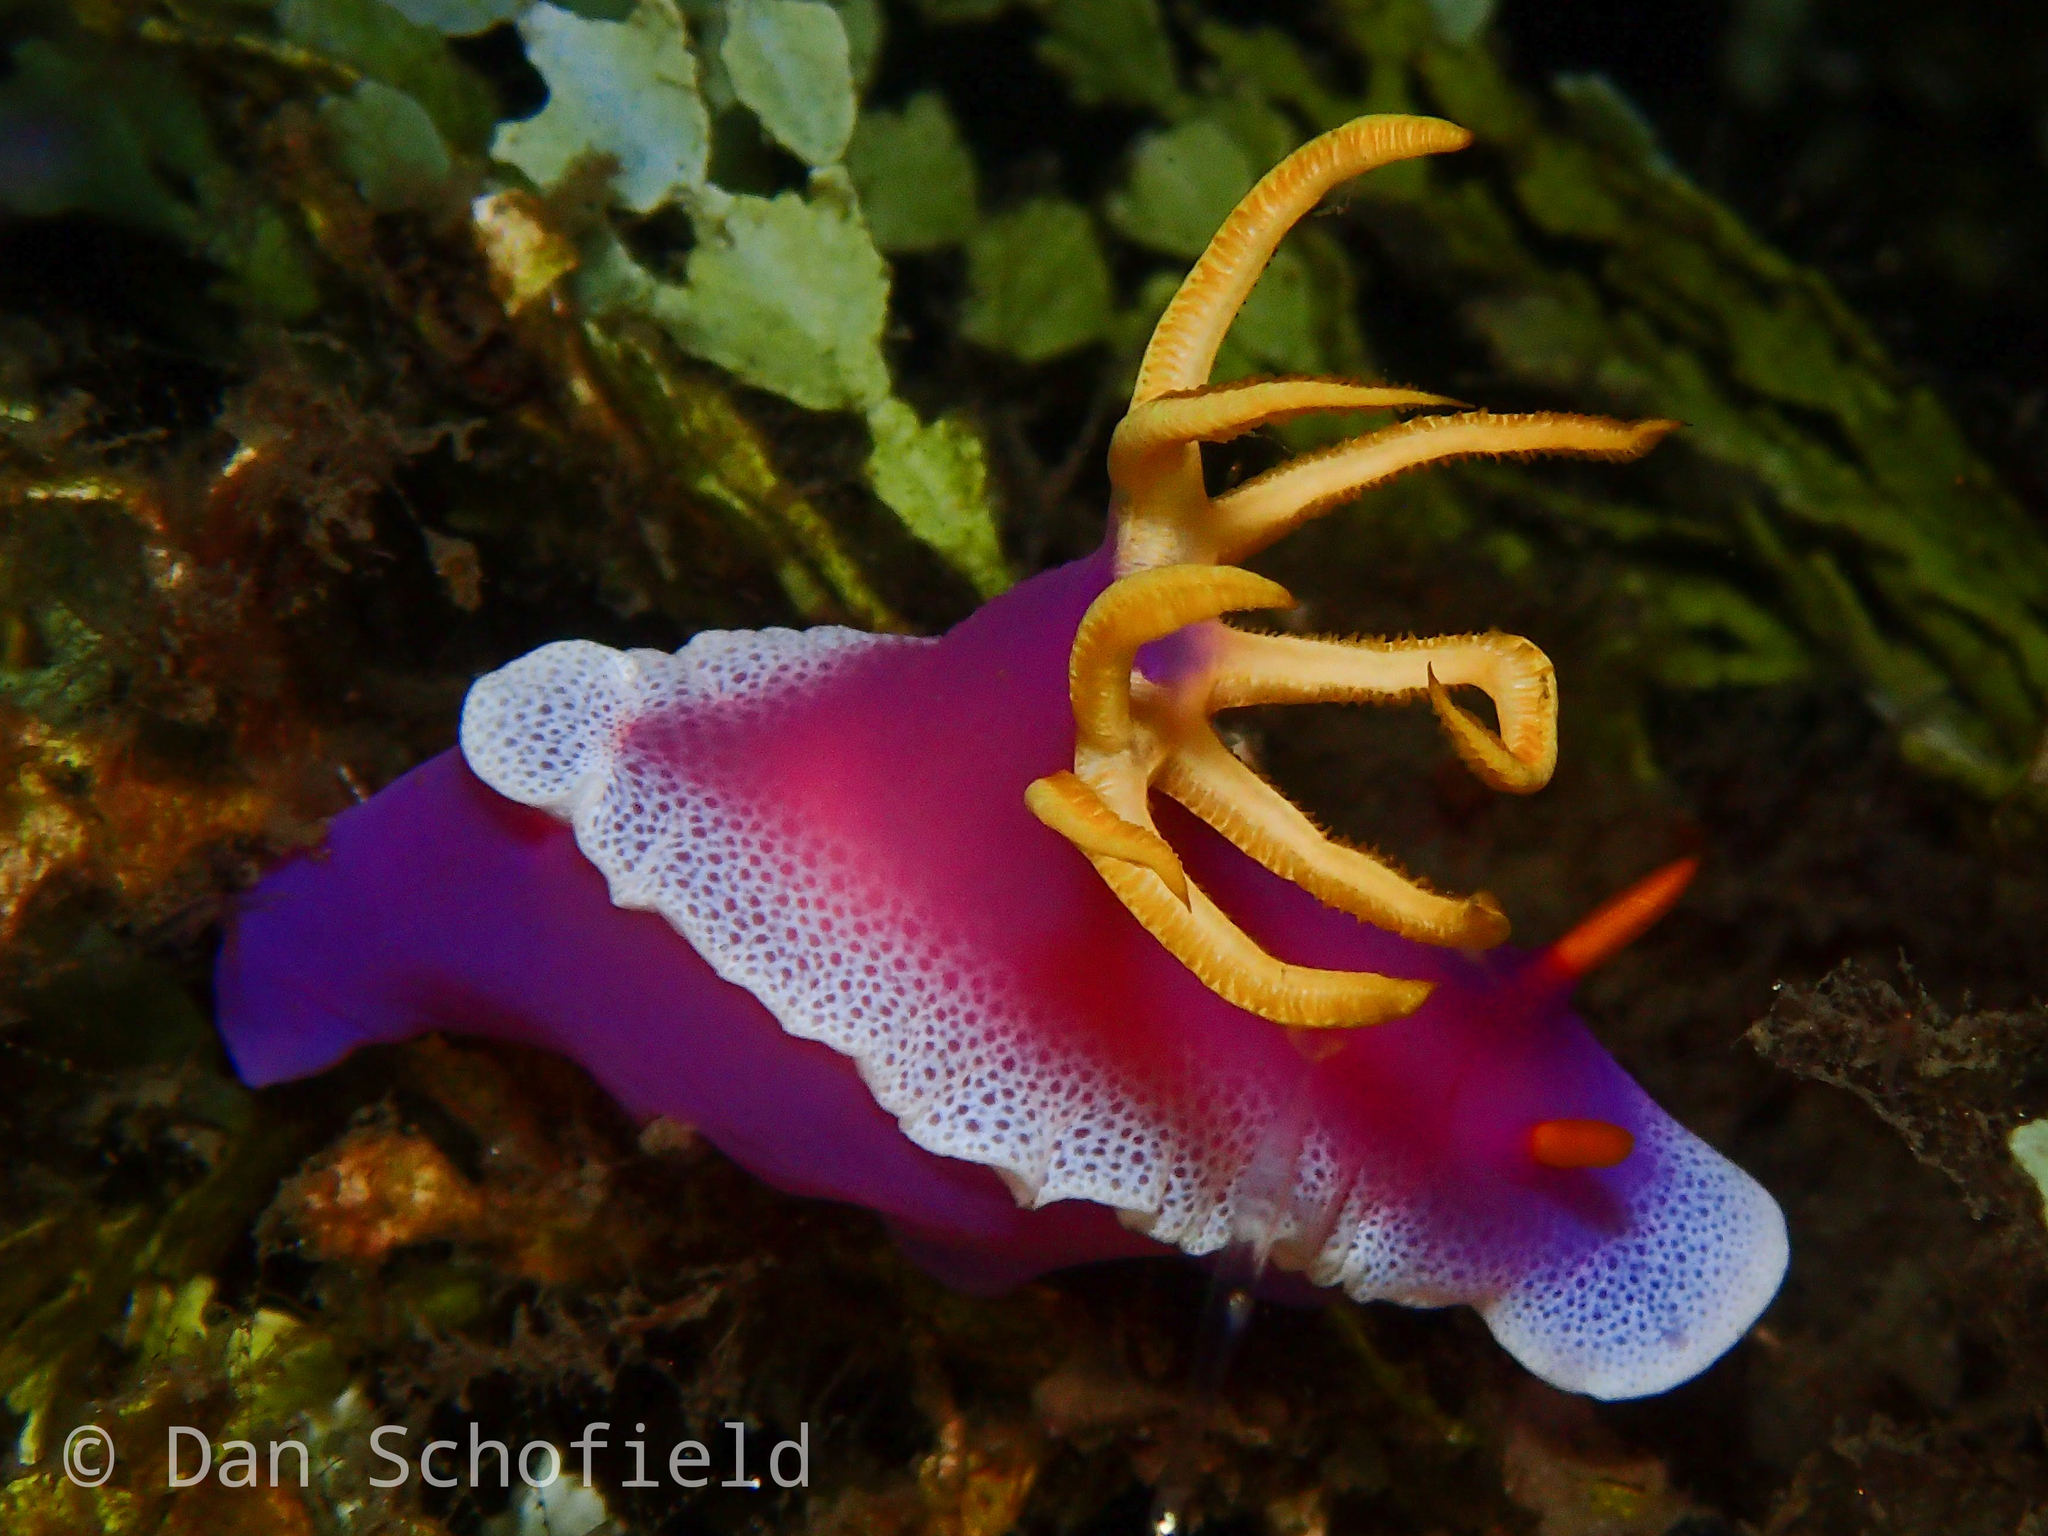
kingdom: Animalia
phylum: Mollusca
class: Gastropoda
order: Nudibranchia
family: Chromodorididae
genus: Hypselodoris
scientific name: Hypselodoris apolegma
